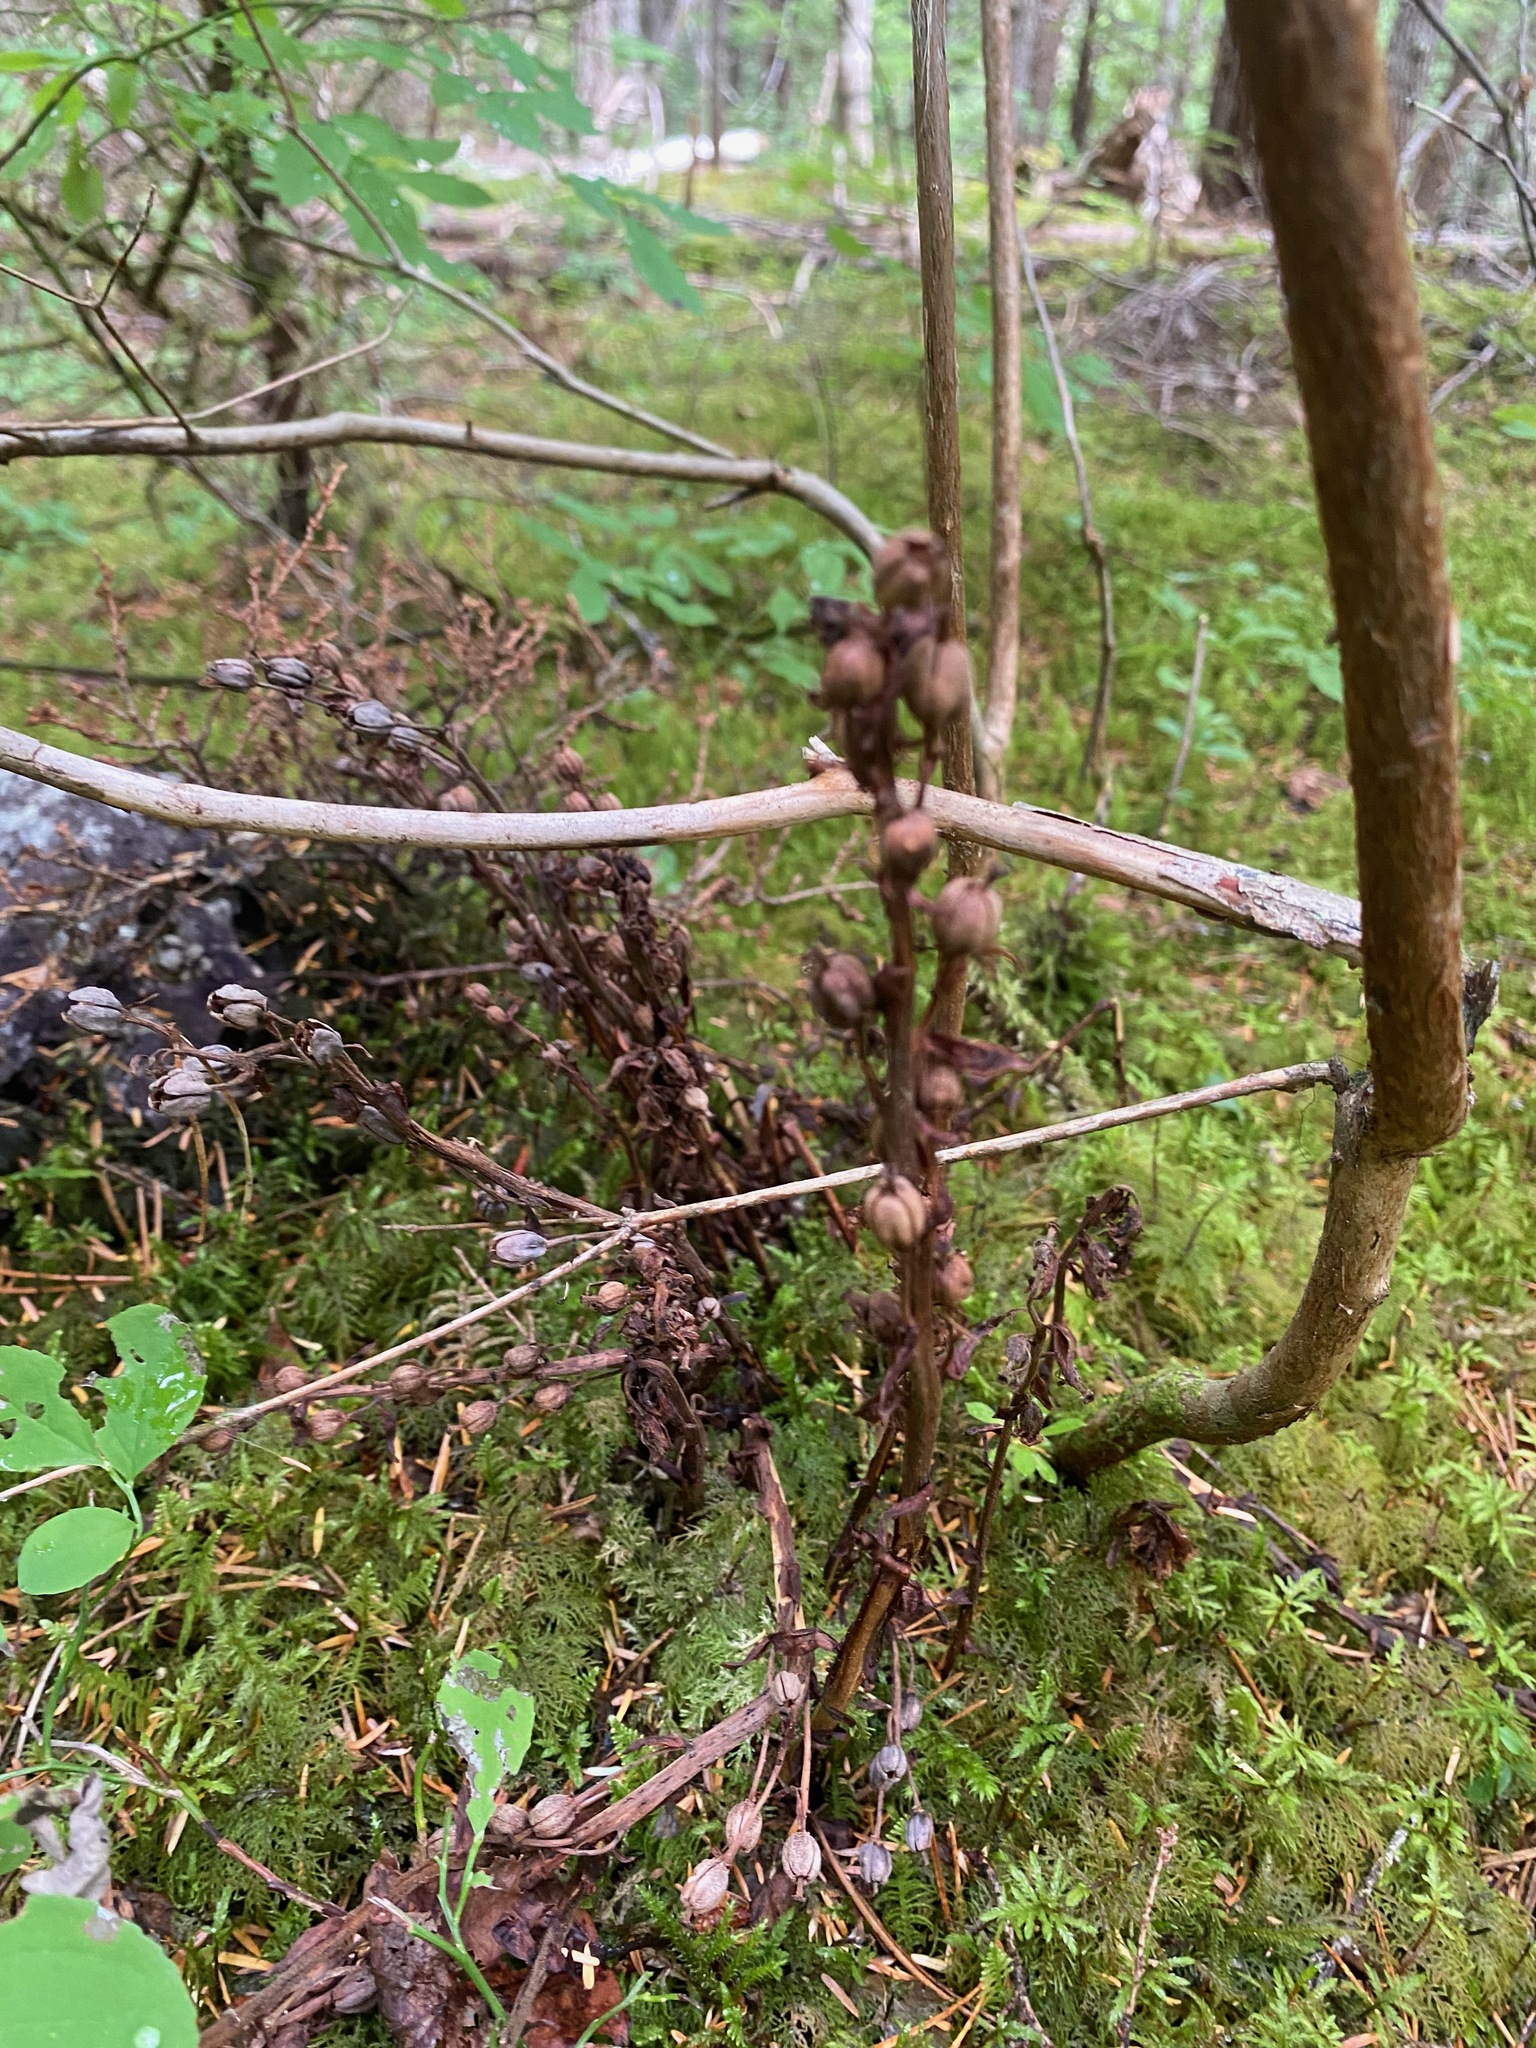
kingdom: Plantae
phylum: Tracheophyta
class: Magnoliopsida
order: Ericales
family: Ericaceae
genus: Hypopitys
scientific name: Hypopitys monotropa
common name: Yellow bird's-nest
